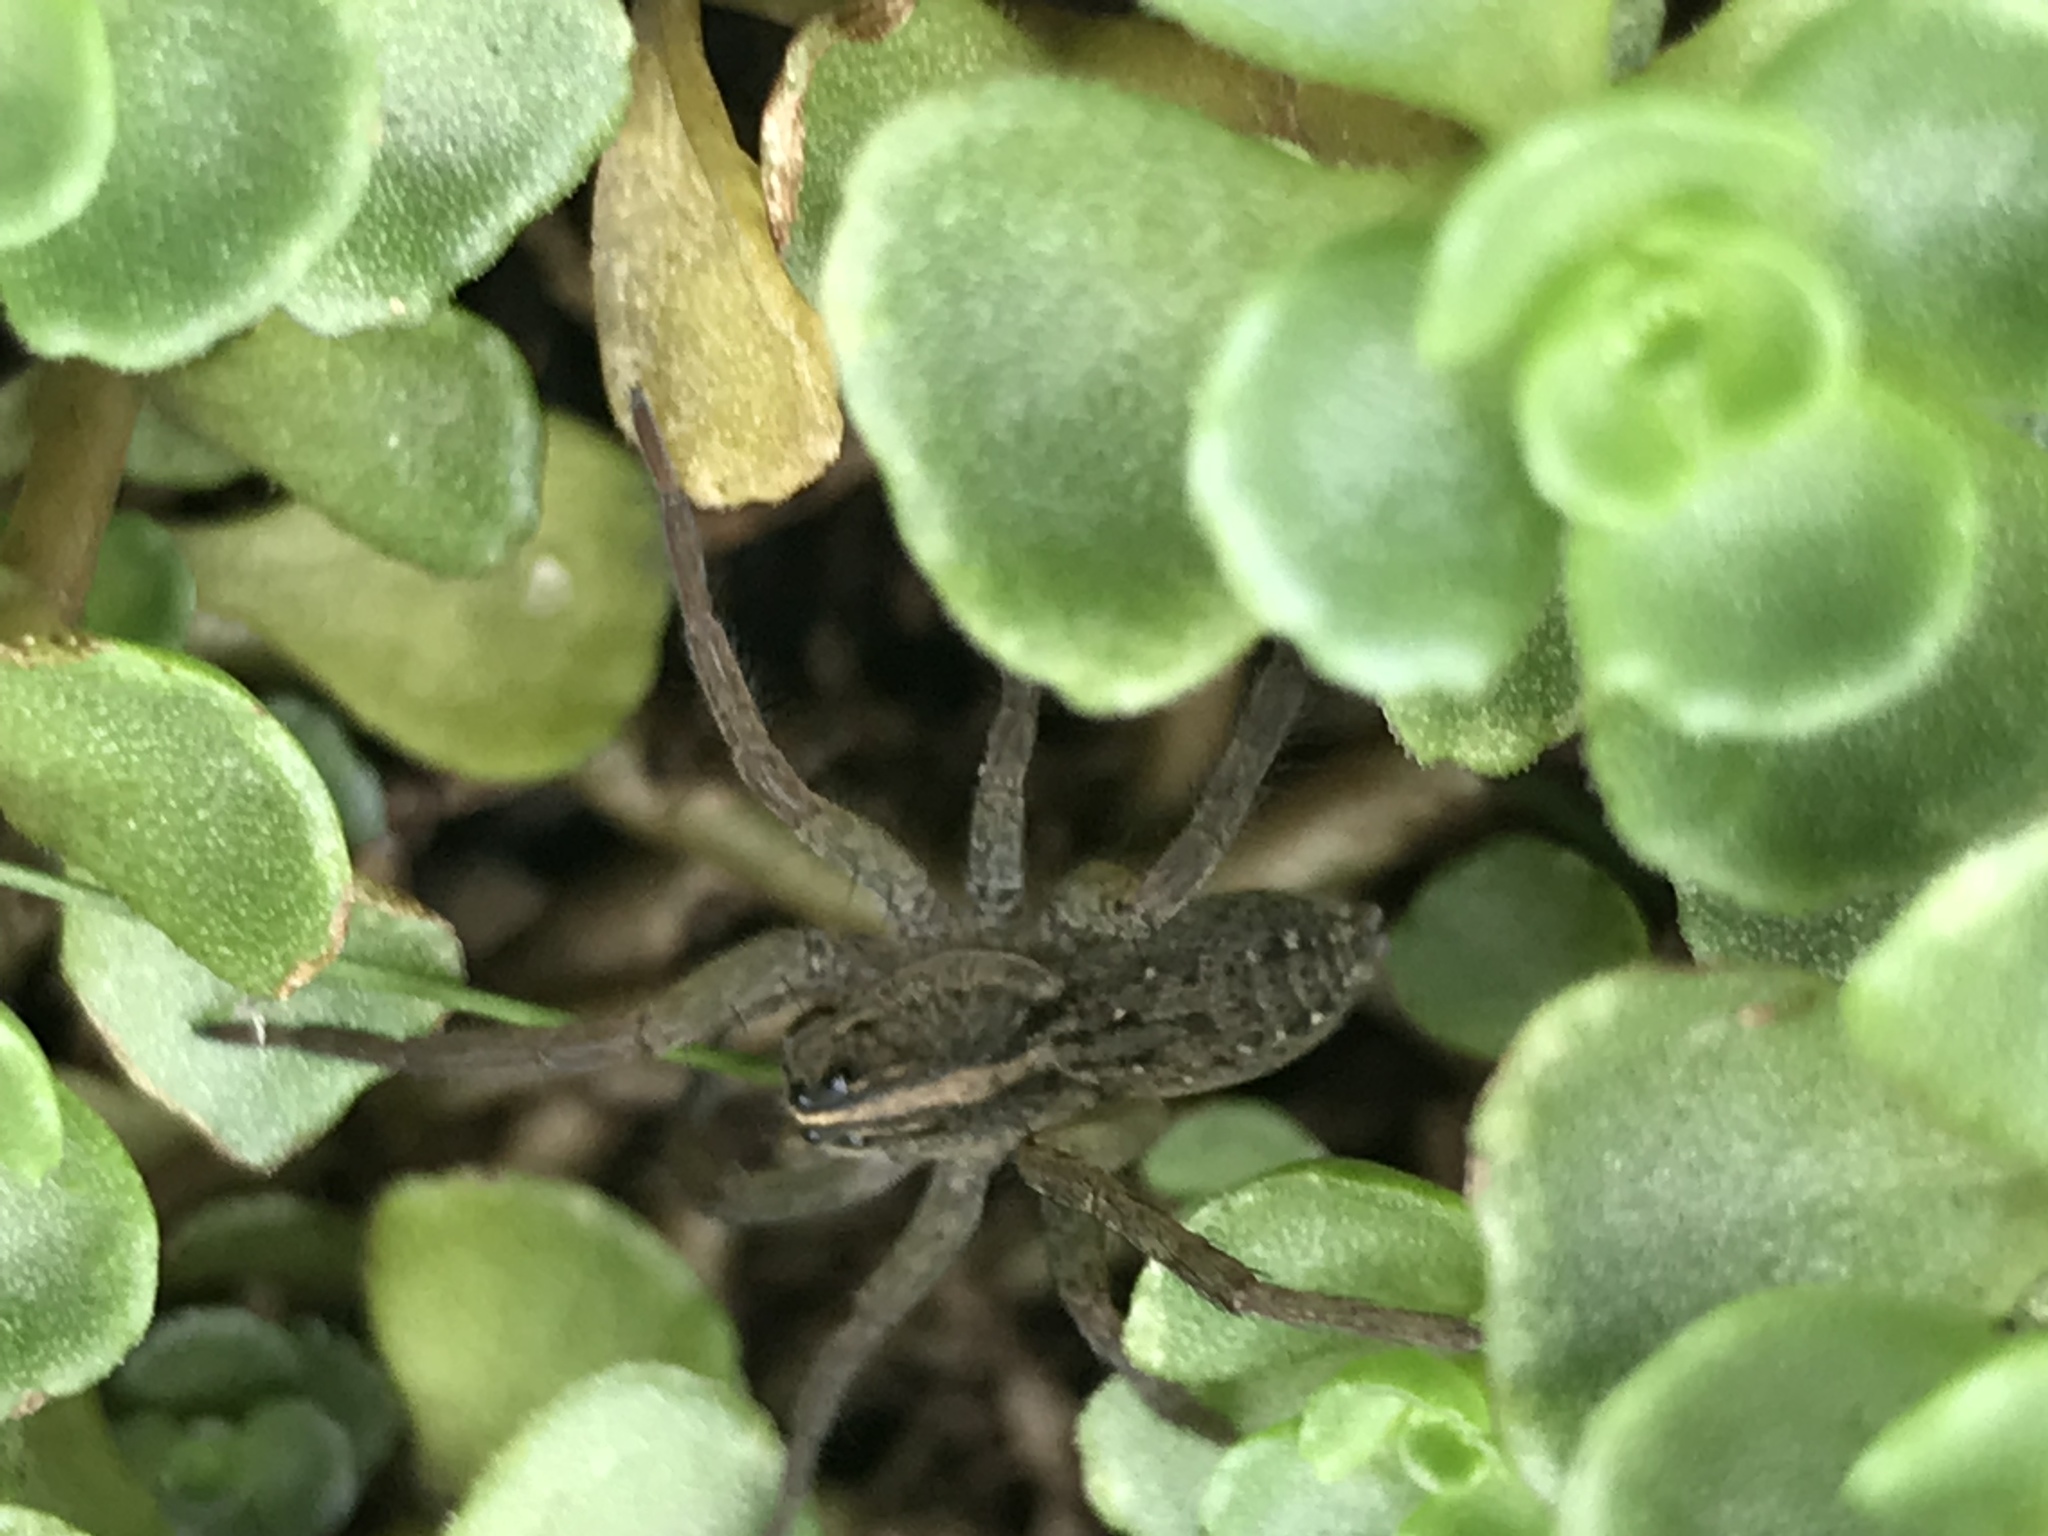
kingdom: Animalia
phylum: Arthropoda
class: Arachnida
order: Araneae
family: Lycosidae
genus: Tigrosa
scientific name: Tigrosa helluo
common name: Wetland giant wolf spider
